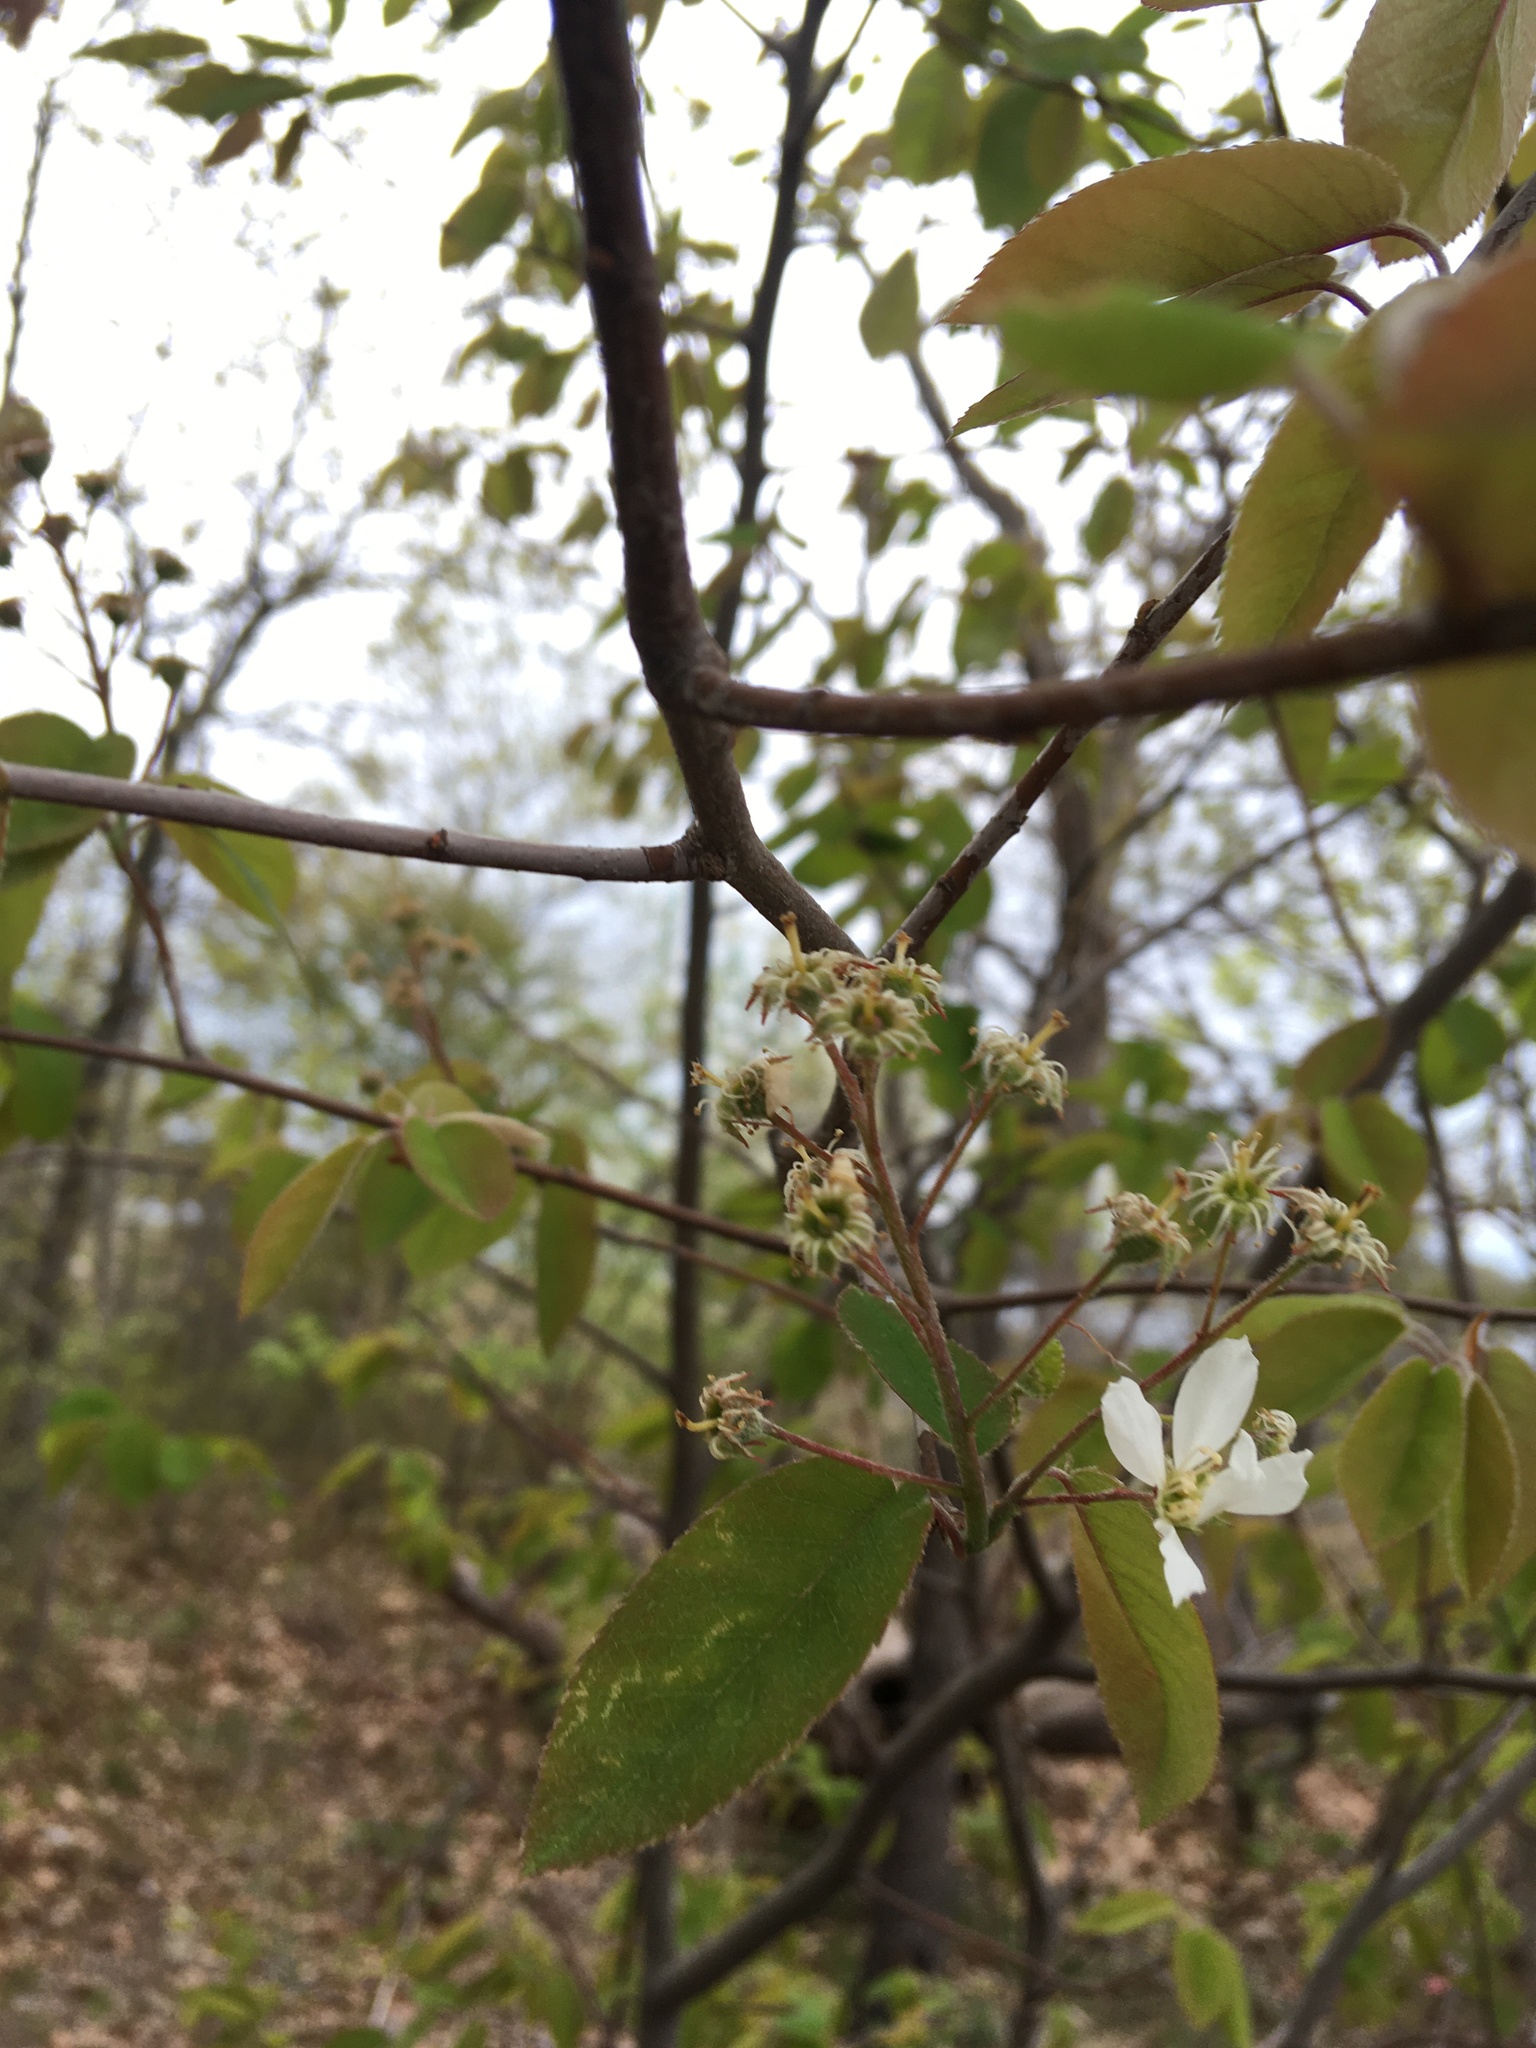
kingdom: Plantae
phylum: Tracheophyta
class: Magnoliopsida
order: Rosales
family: Rosaceae
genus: Amelanchier
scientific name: Amelanchier laevis
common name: Allegheny serviceberry
